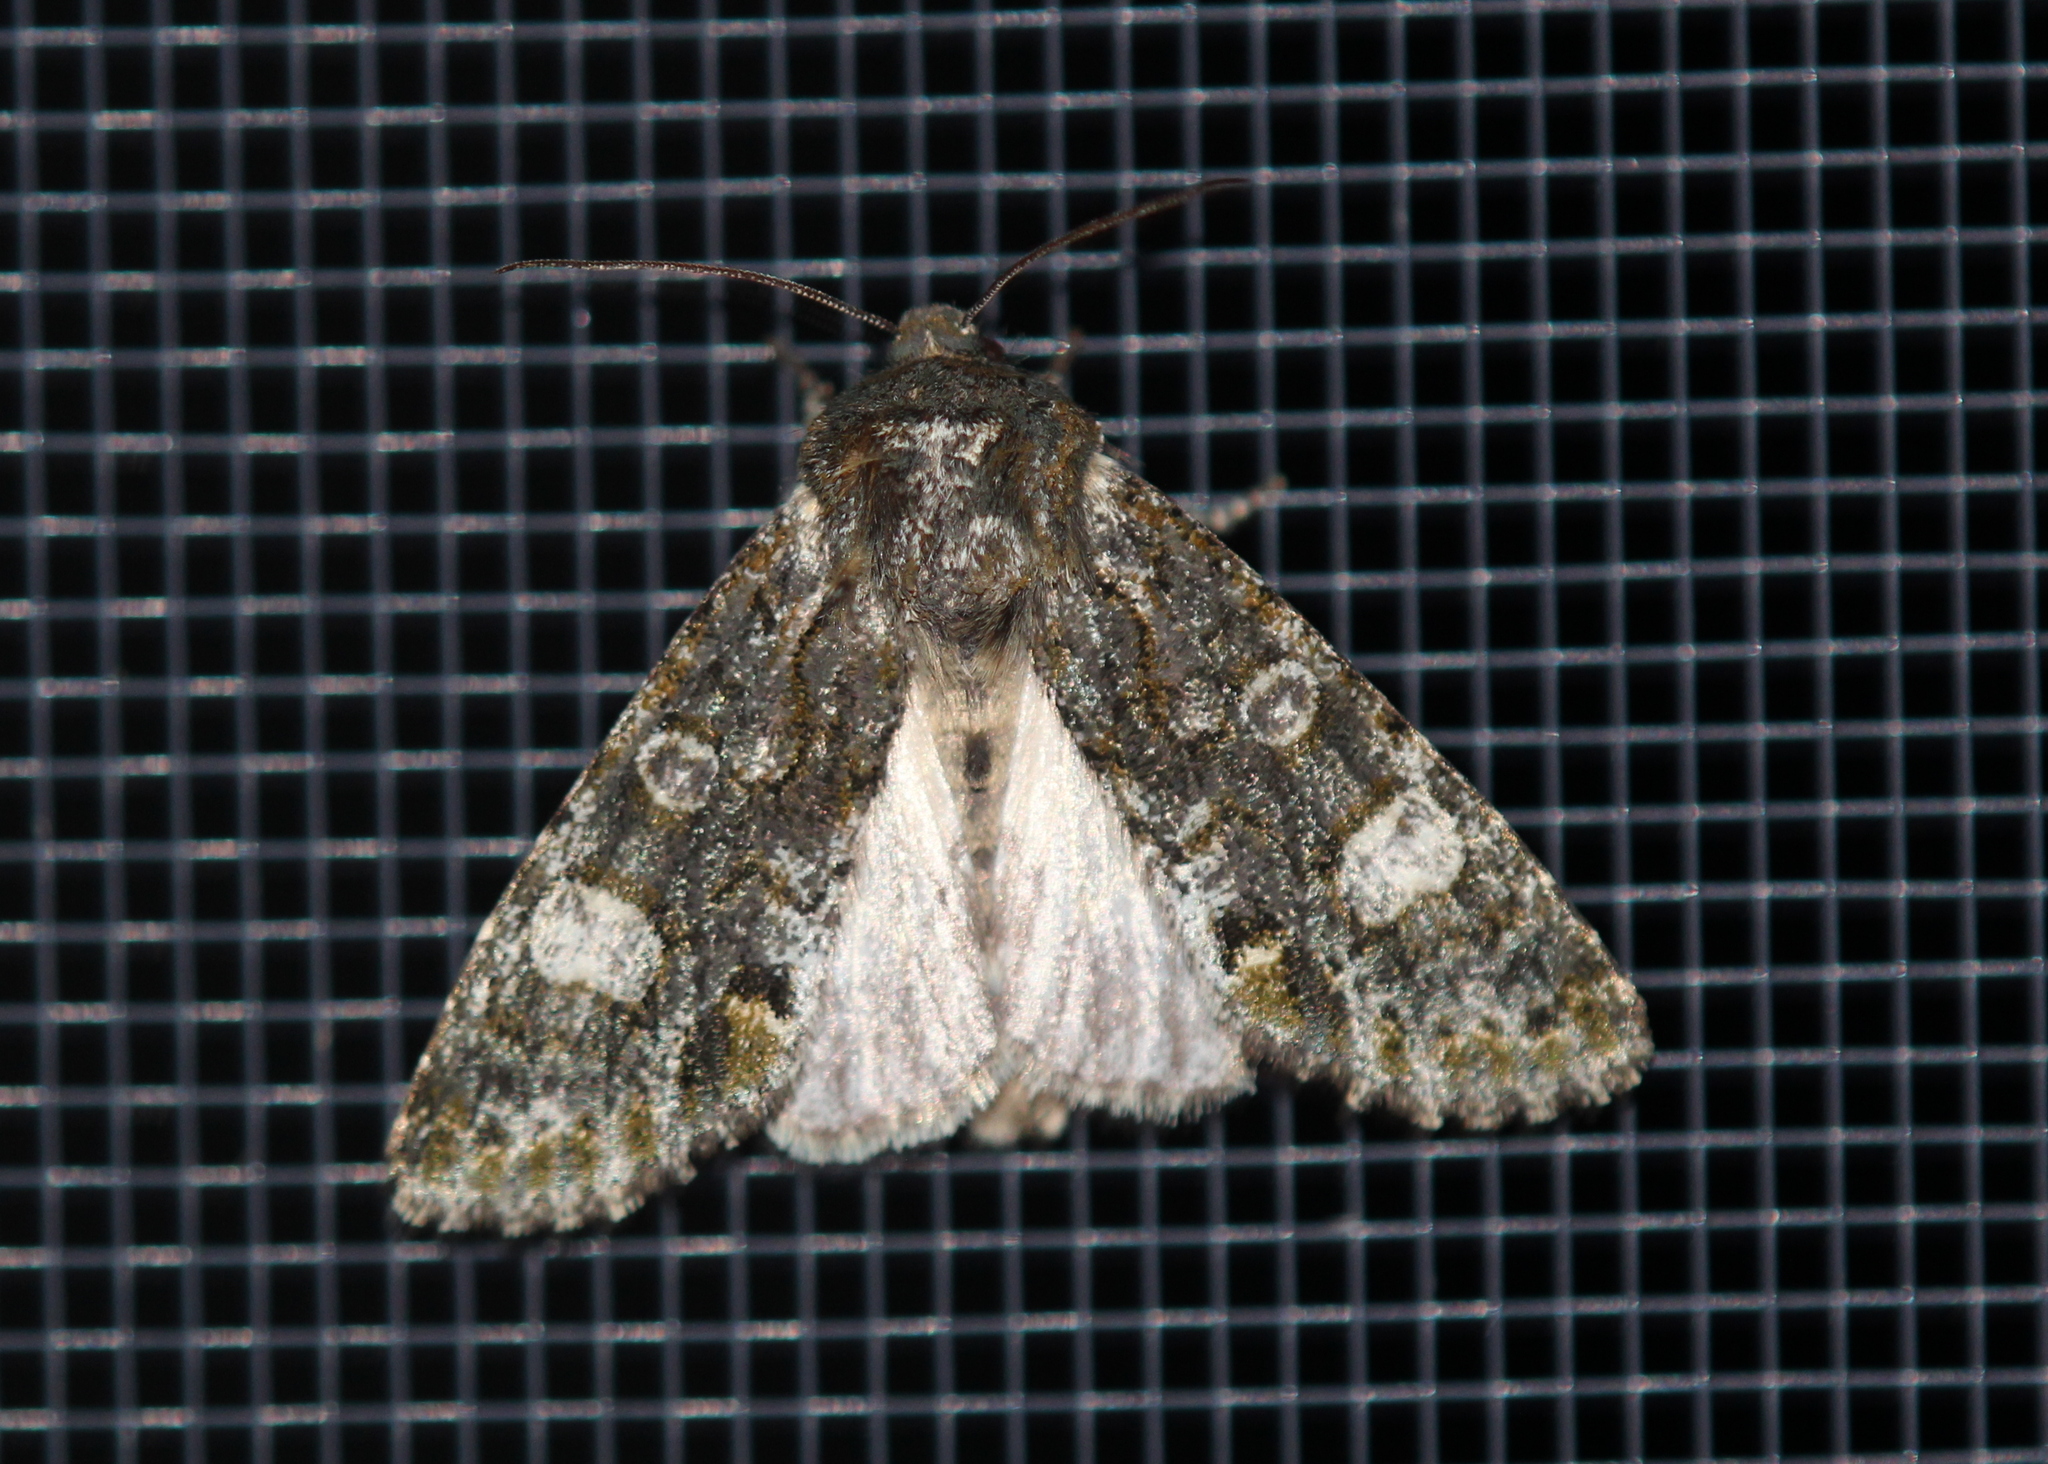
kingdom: Animalia
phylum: Arthropoda
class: Insecta
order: Lepidoptera
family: Noctuidae
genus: Psaphida
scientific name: Psaphida grotei
